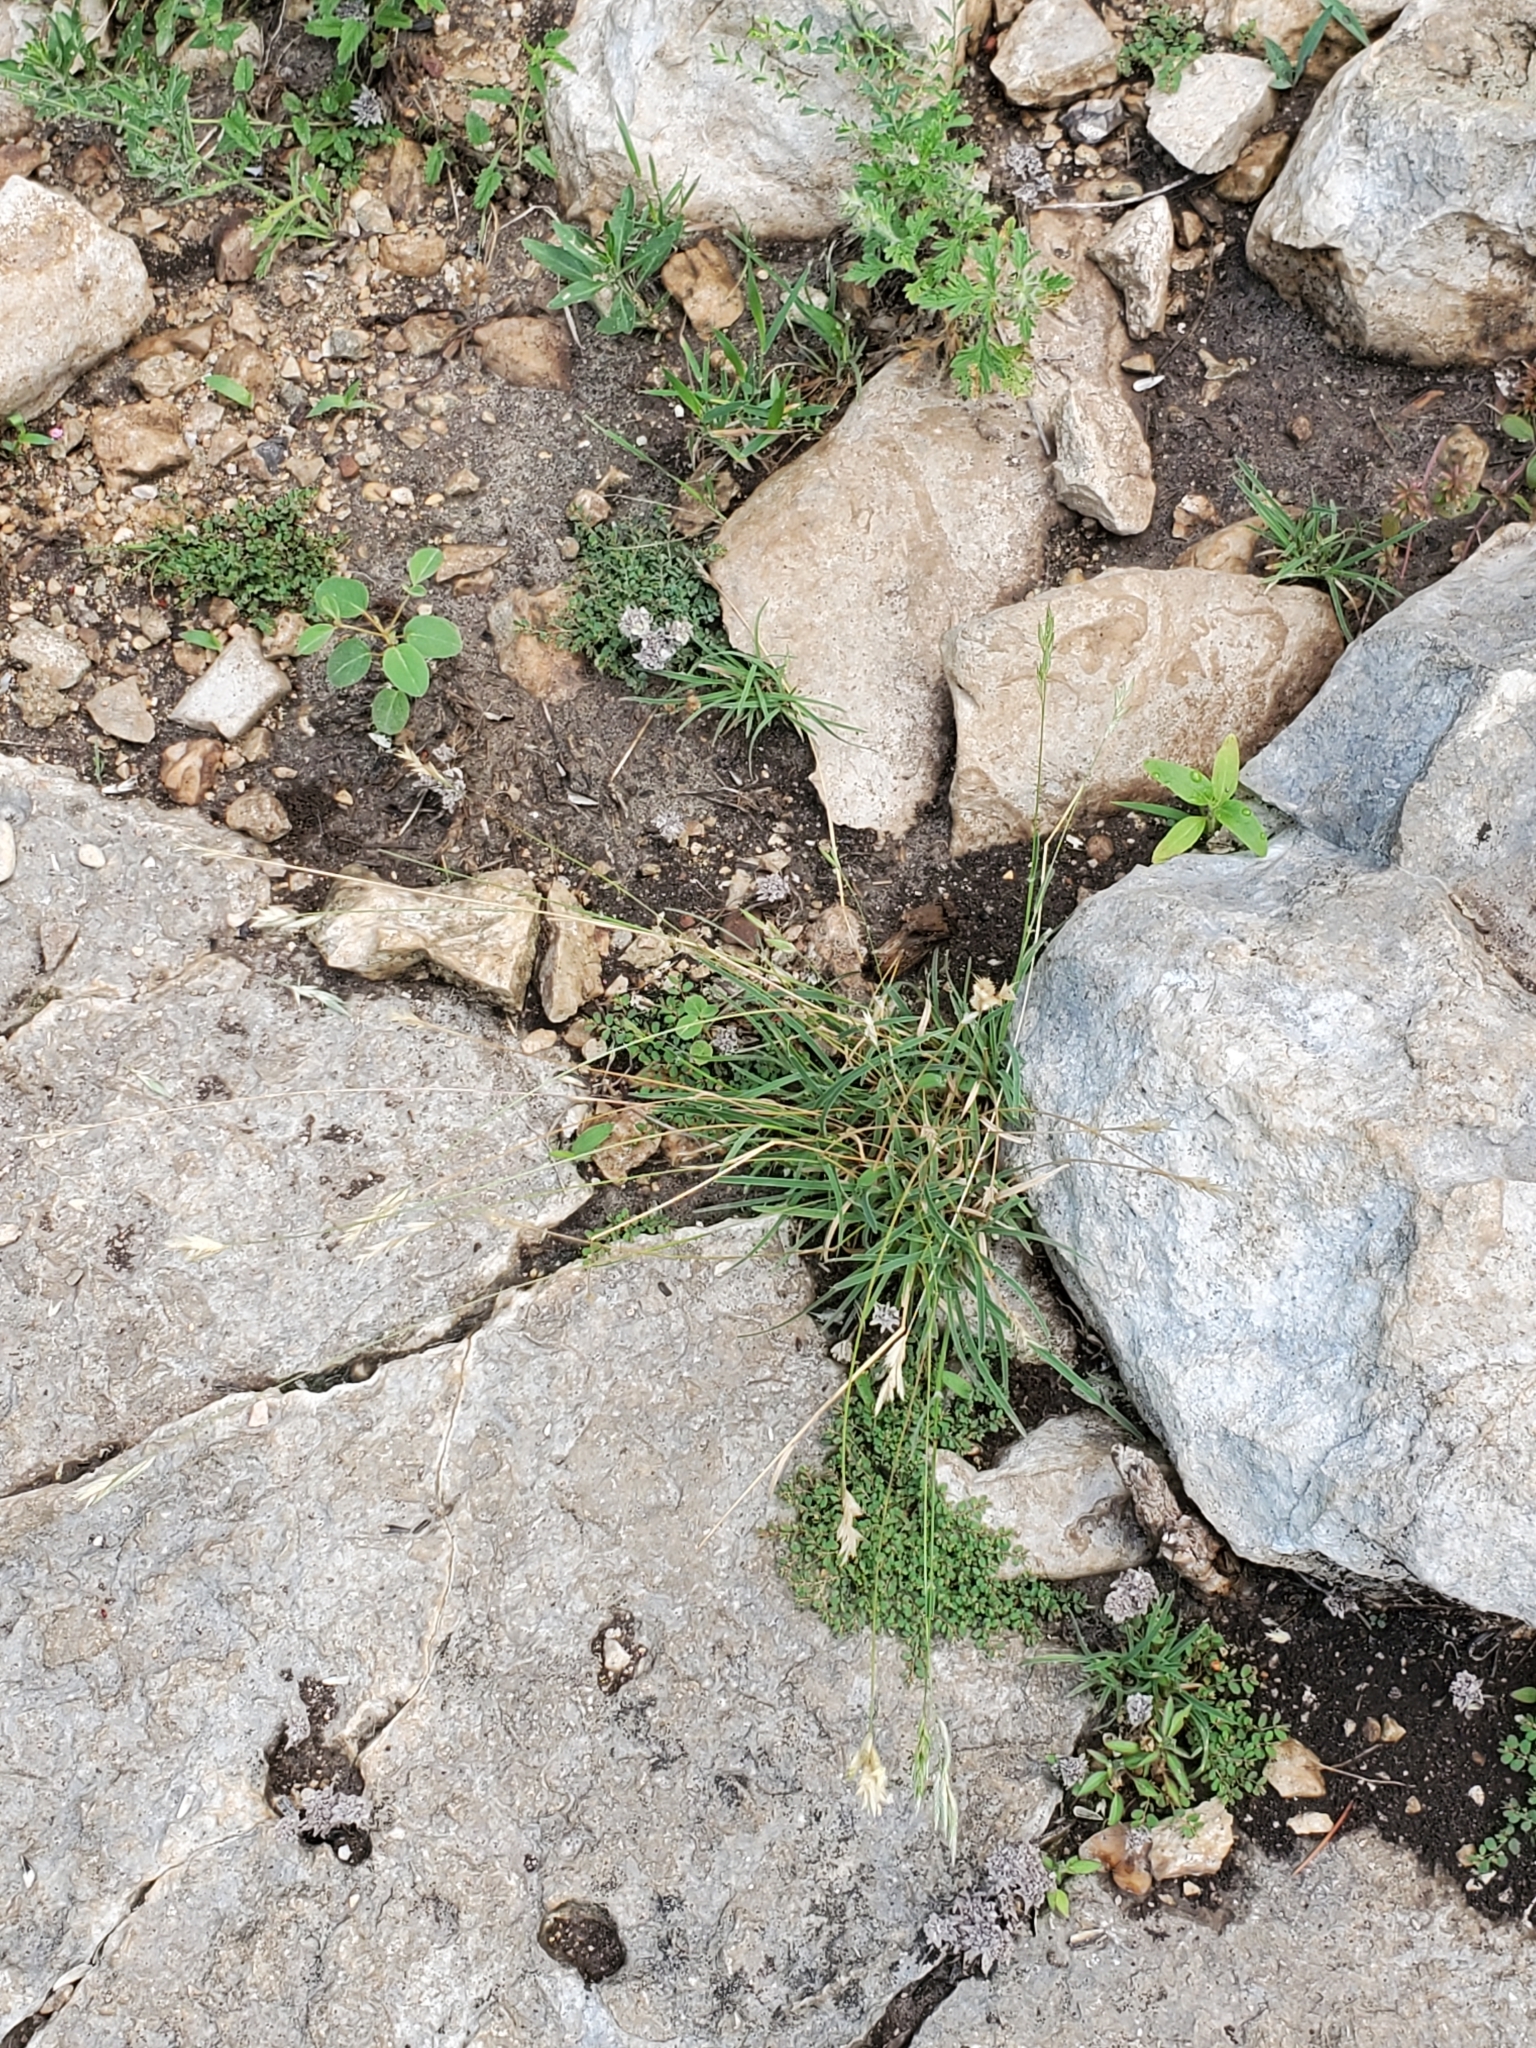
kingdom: Plantae
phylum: Tracheophyta
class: Liliopsida
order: Poales
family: Poaceae
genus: Erioneuron
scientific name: Erioneuron pilosum
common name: Hairy woolly grass
